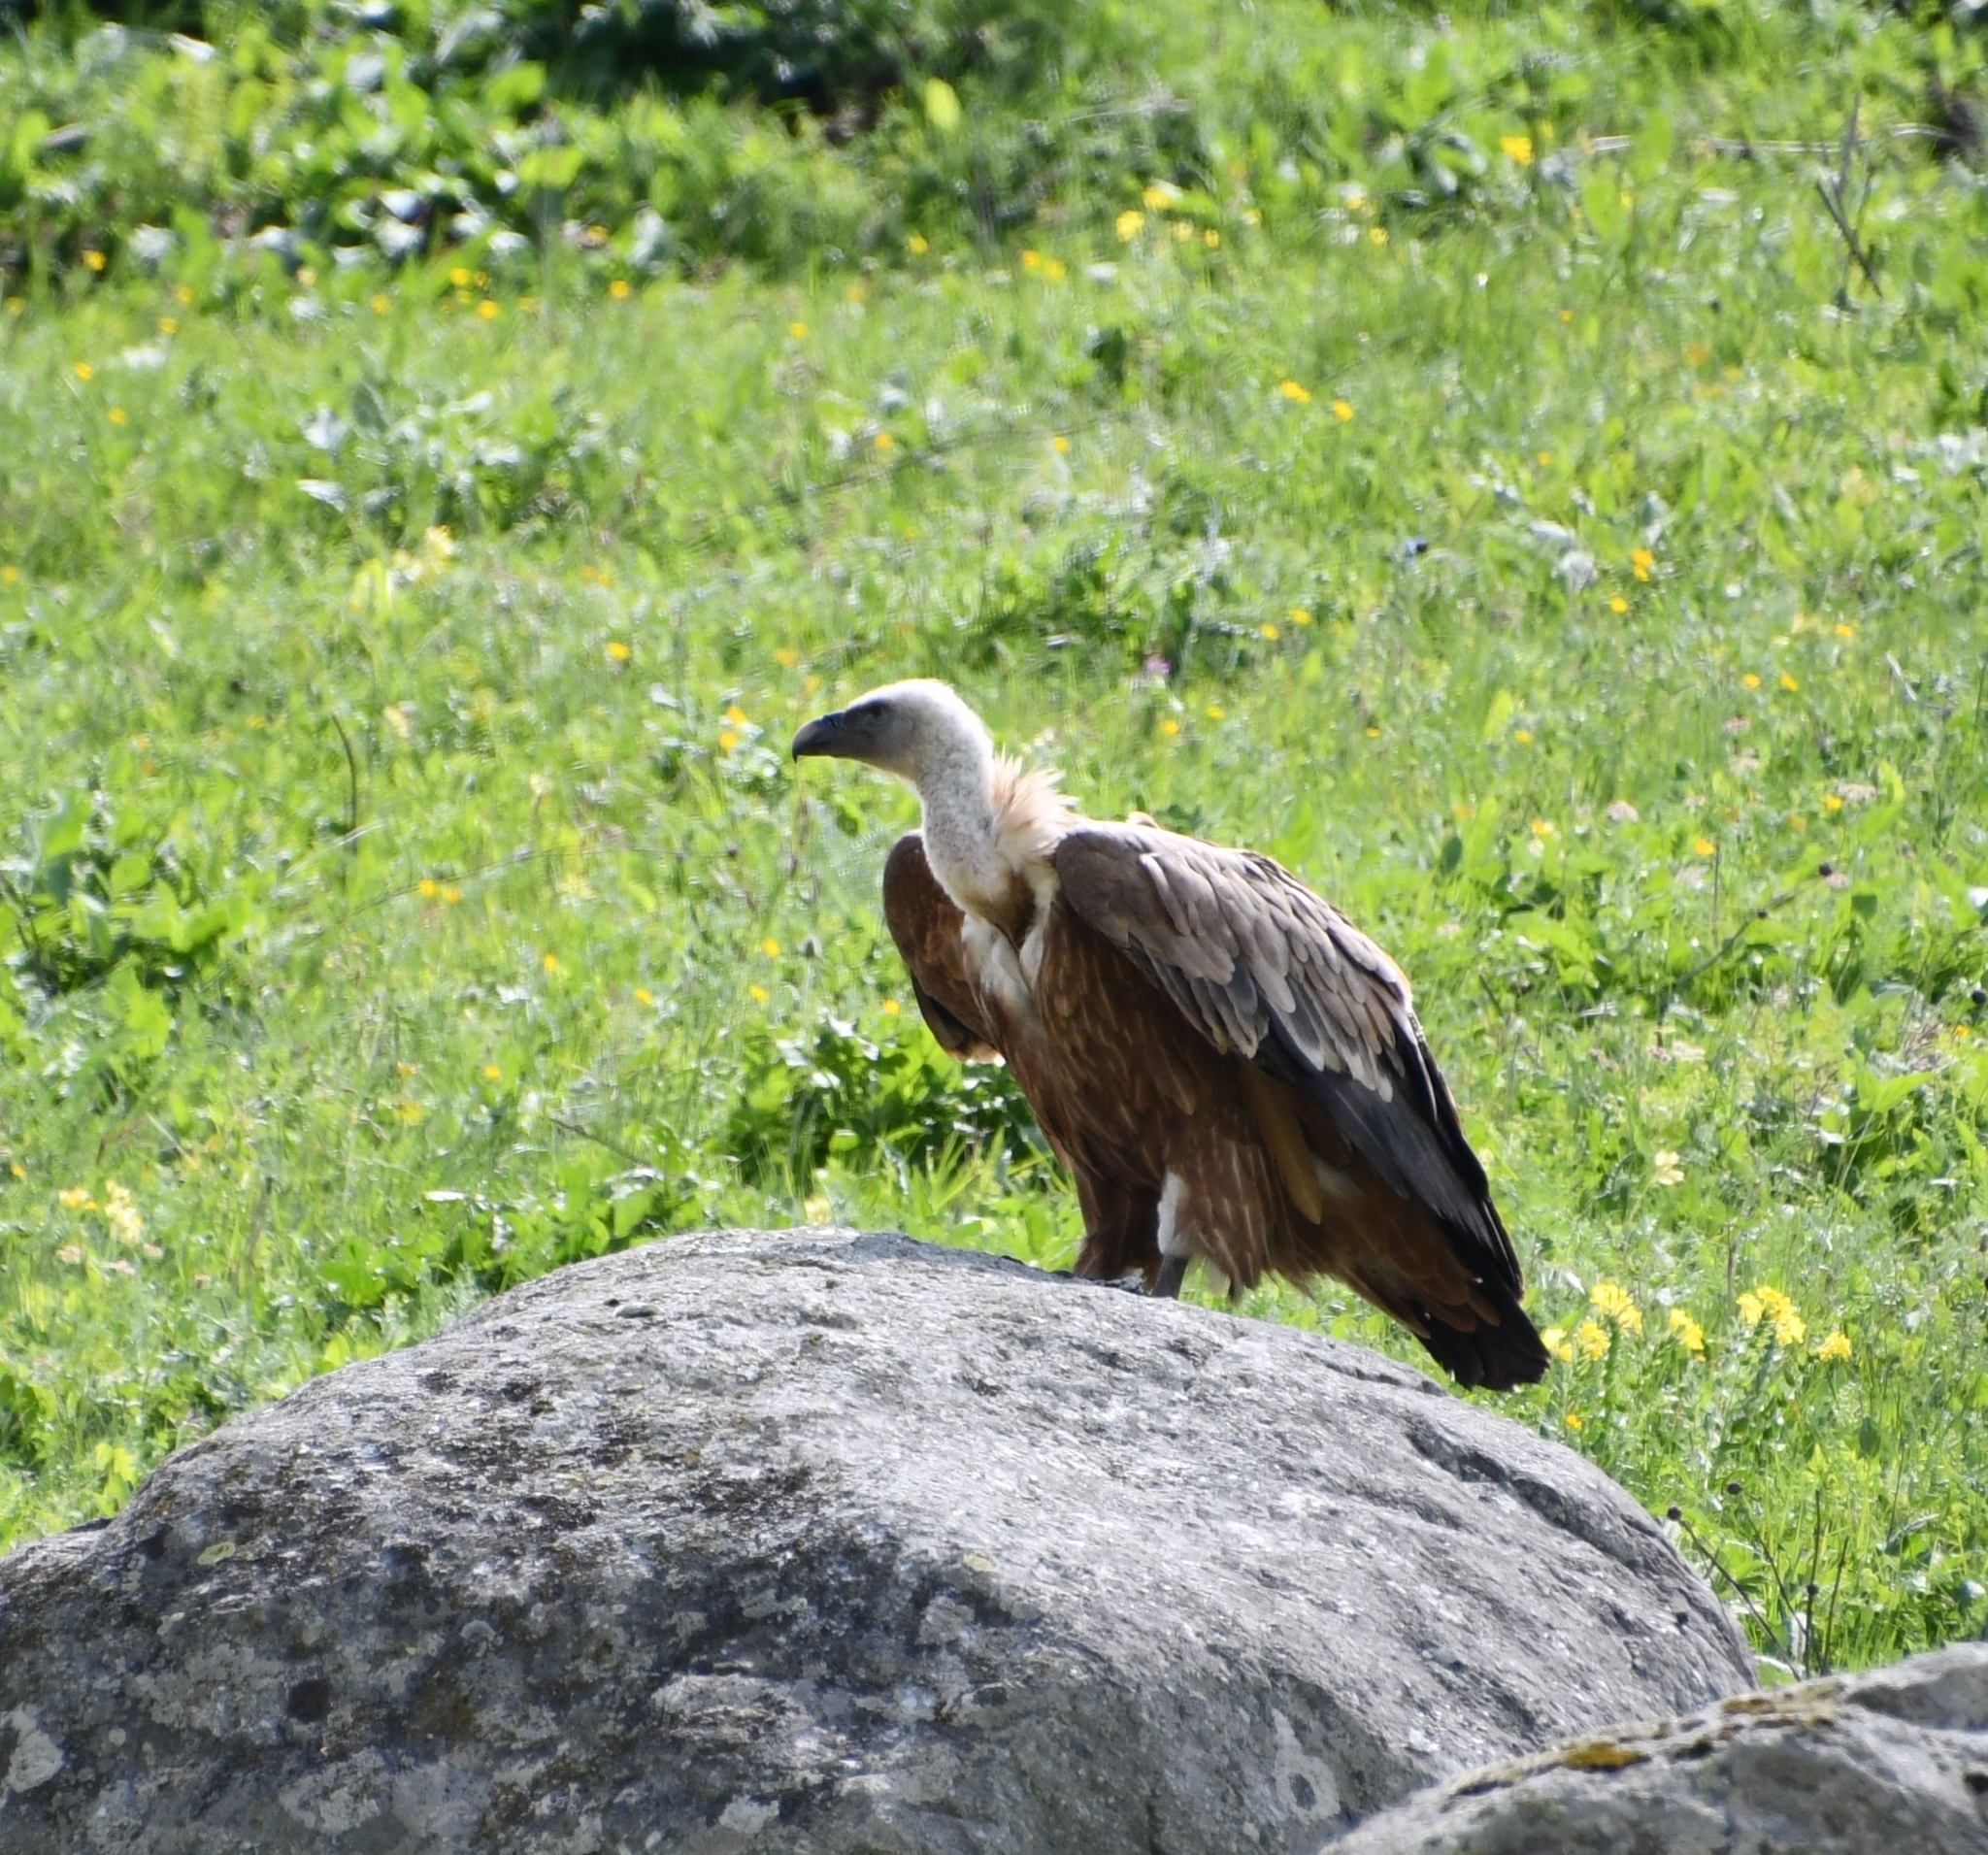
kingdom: Animalia
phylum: Chordata
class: Aves
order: Accipitriformes
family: Accipitridae
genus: Gyps
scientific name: Gyps fulvus
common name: Griffon vulture
